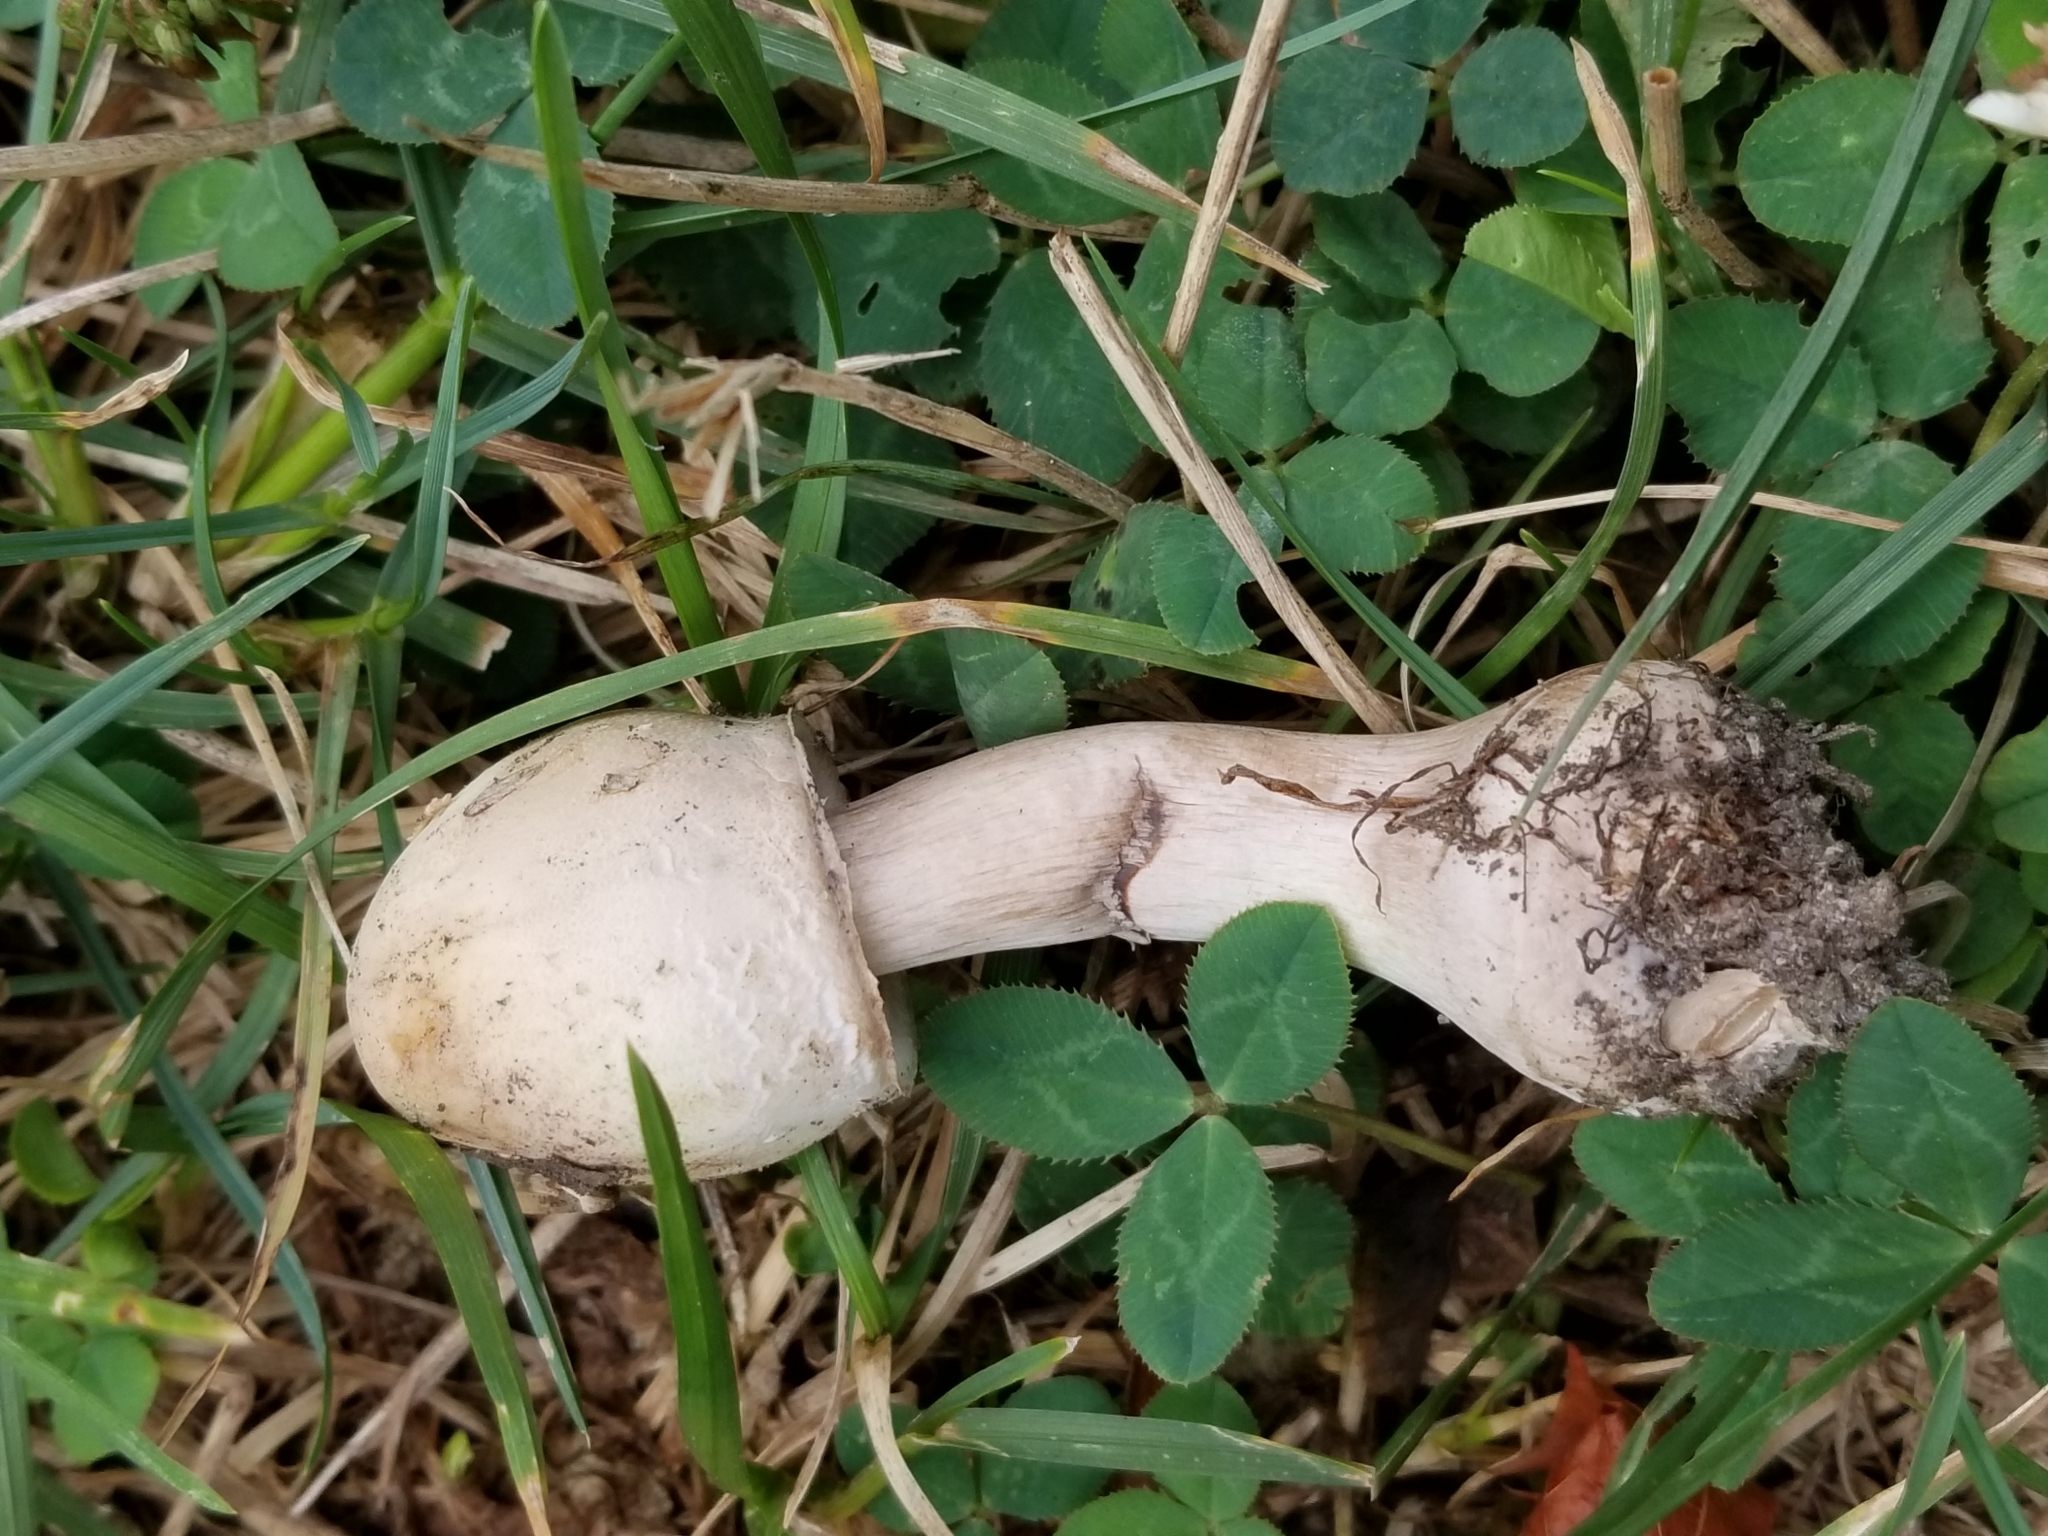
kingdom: Fungi
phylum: Basidiomycota
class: Agaricomycetes
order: Agaricales
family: Agaricaceae
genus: Chlorophyllum
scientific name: Chlorophyllum molybdites
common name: False parasol
